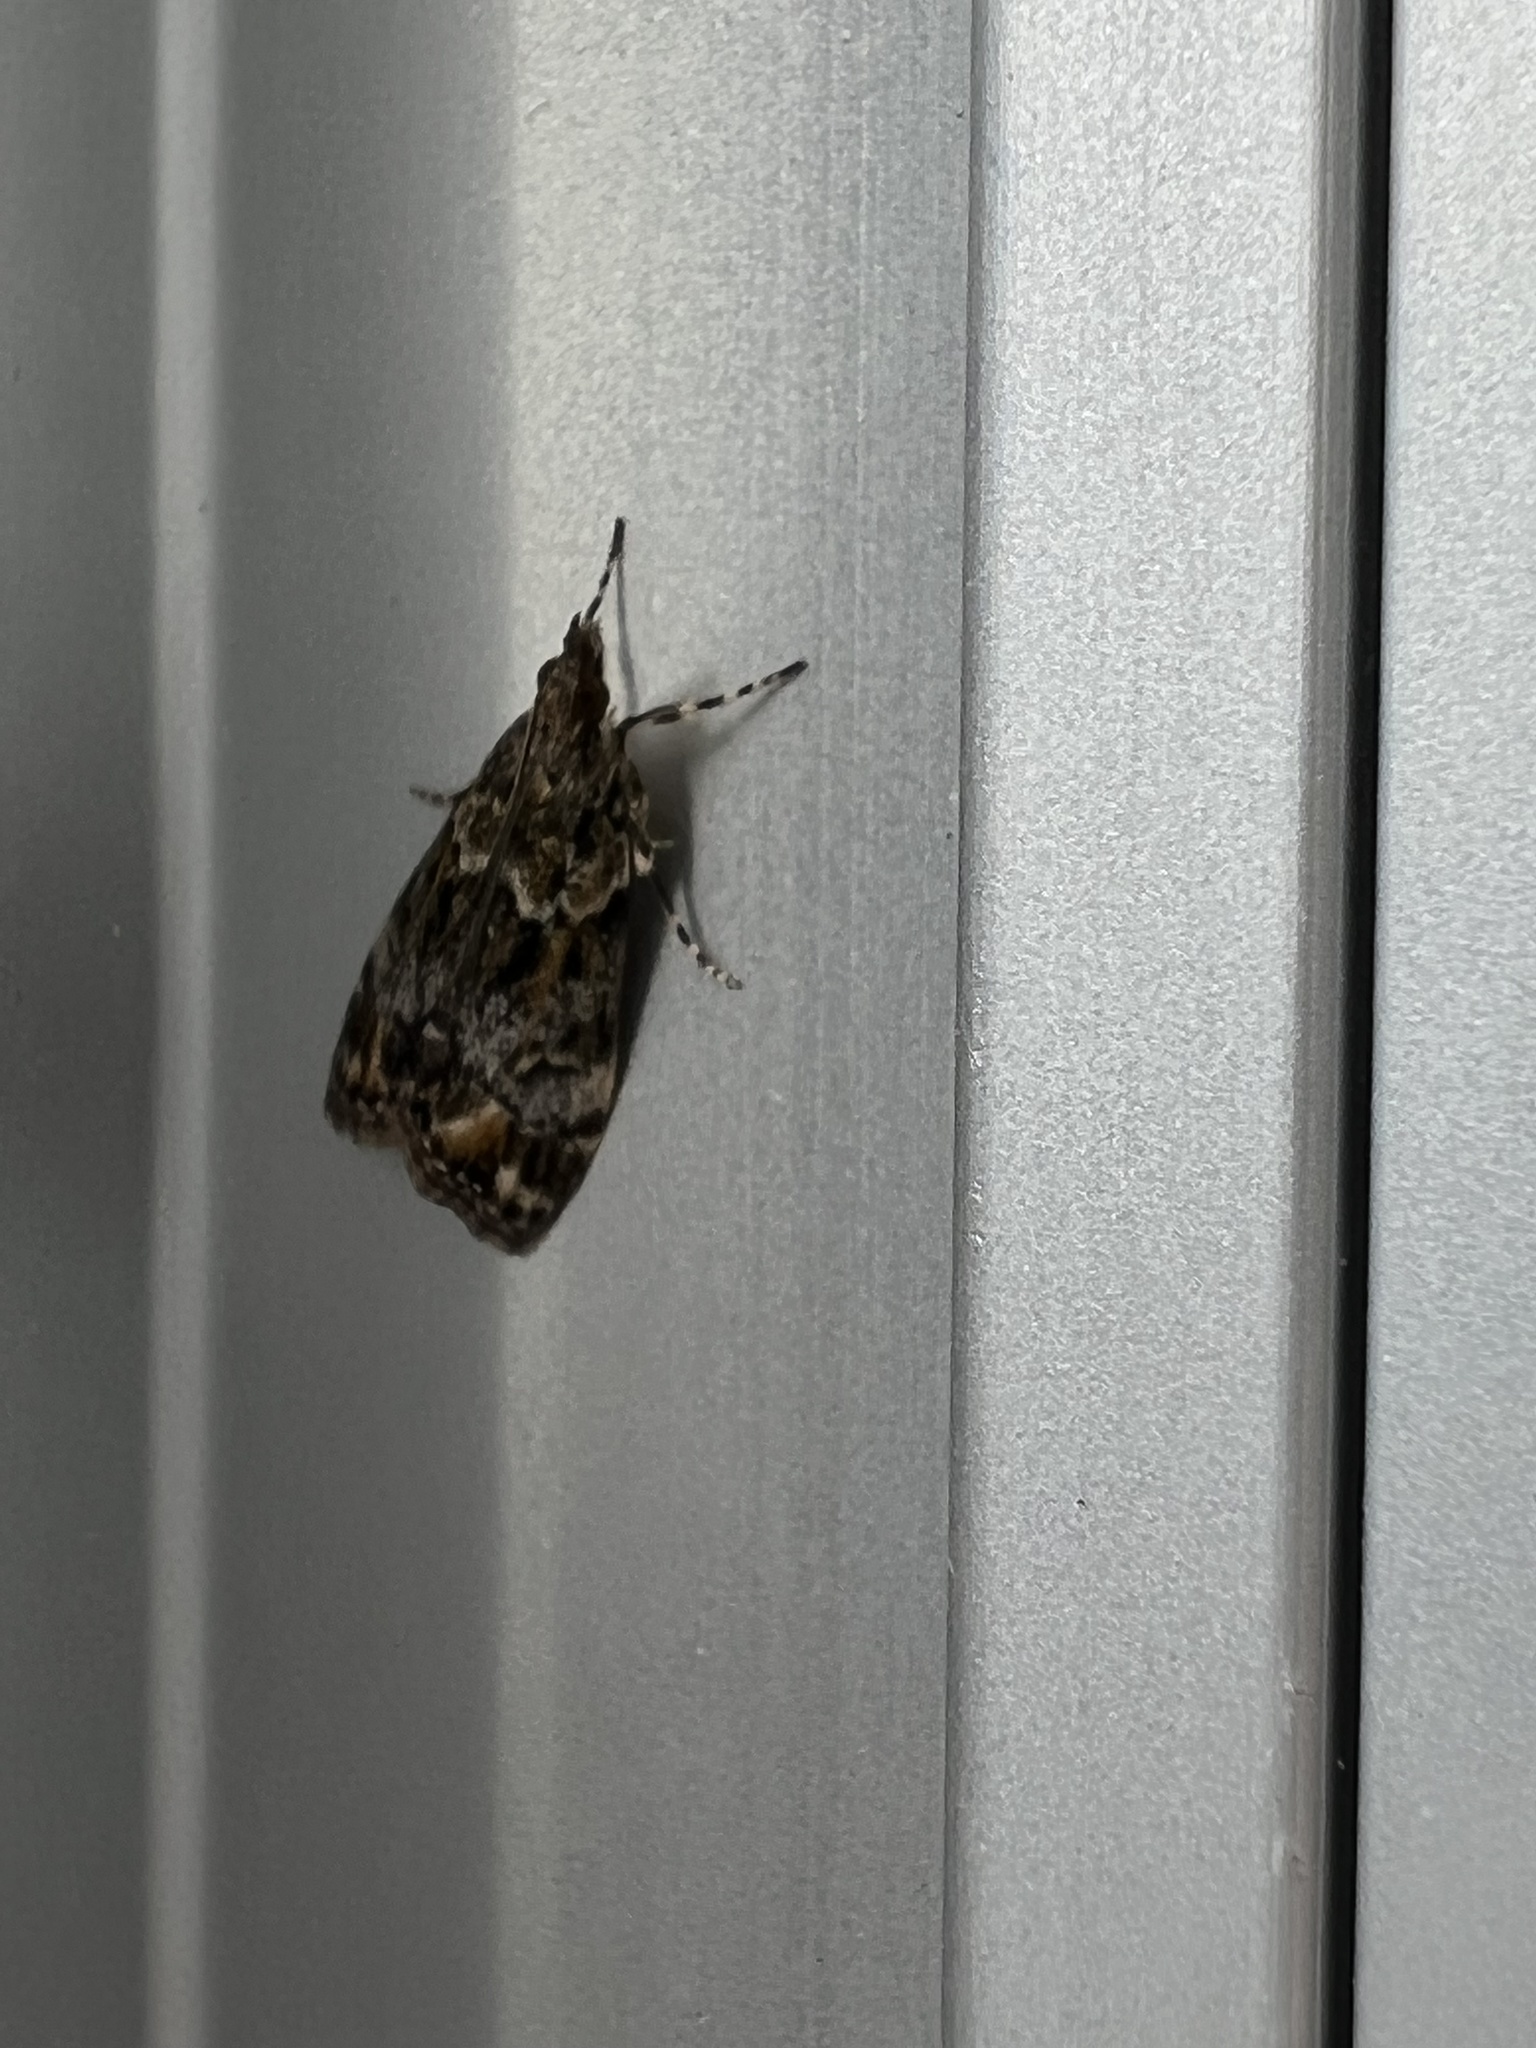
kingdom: Animalia
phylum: Arthropoda
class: Insecta
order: Lepidoptera
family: Crambidae
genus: Eudonia
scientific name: Eudonia minualis
